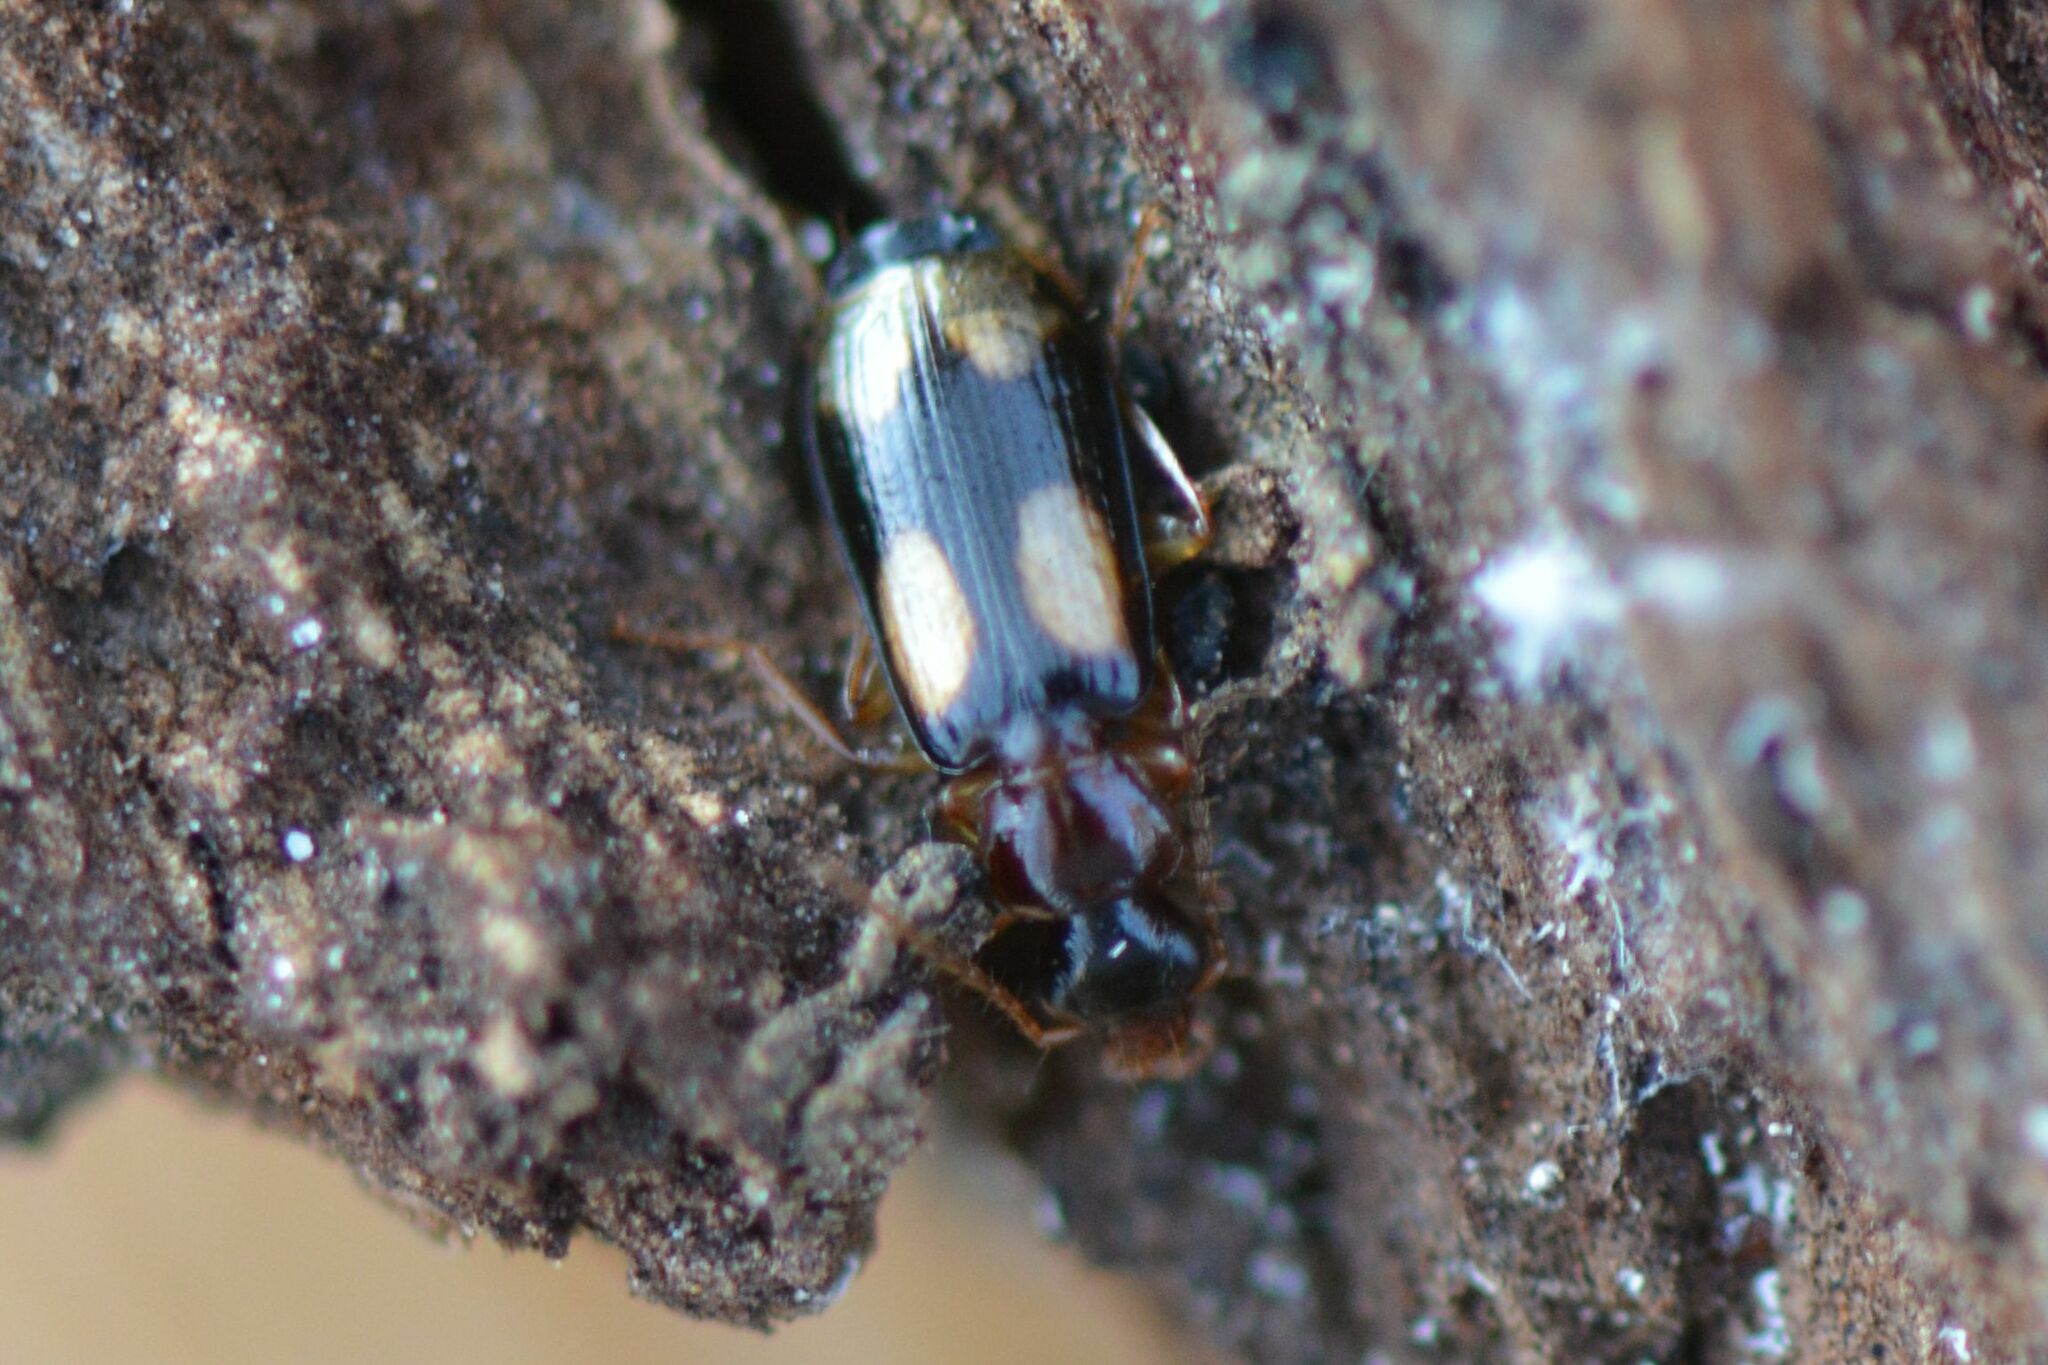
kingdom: Animalia
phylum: Arthropoda
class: Insecta
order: Coleoptera
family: Carabidae
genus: Dromius
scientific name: Dromius quadrimaculatus
